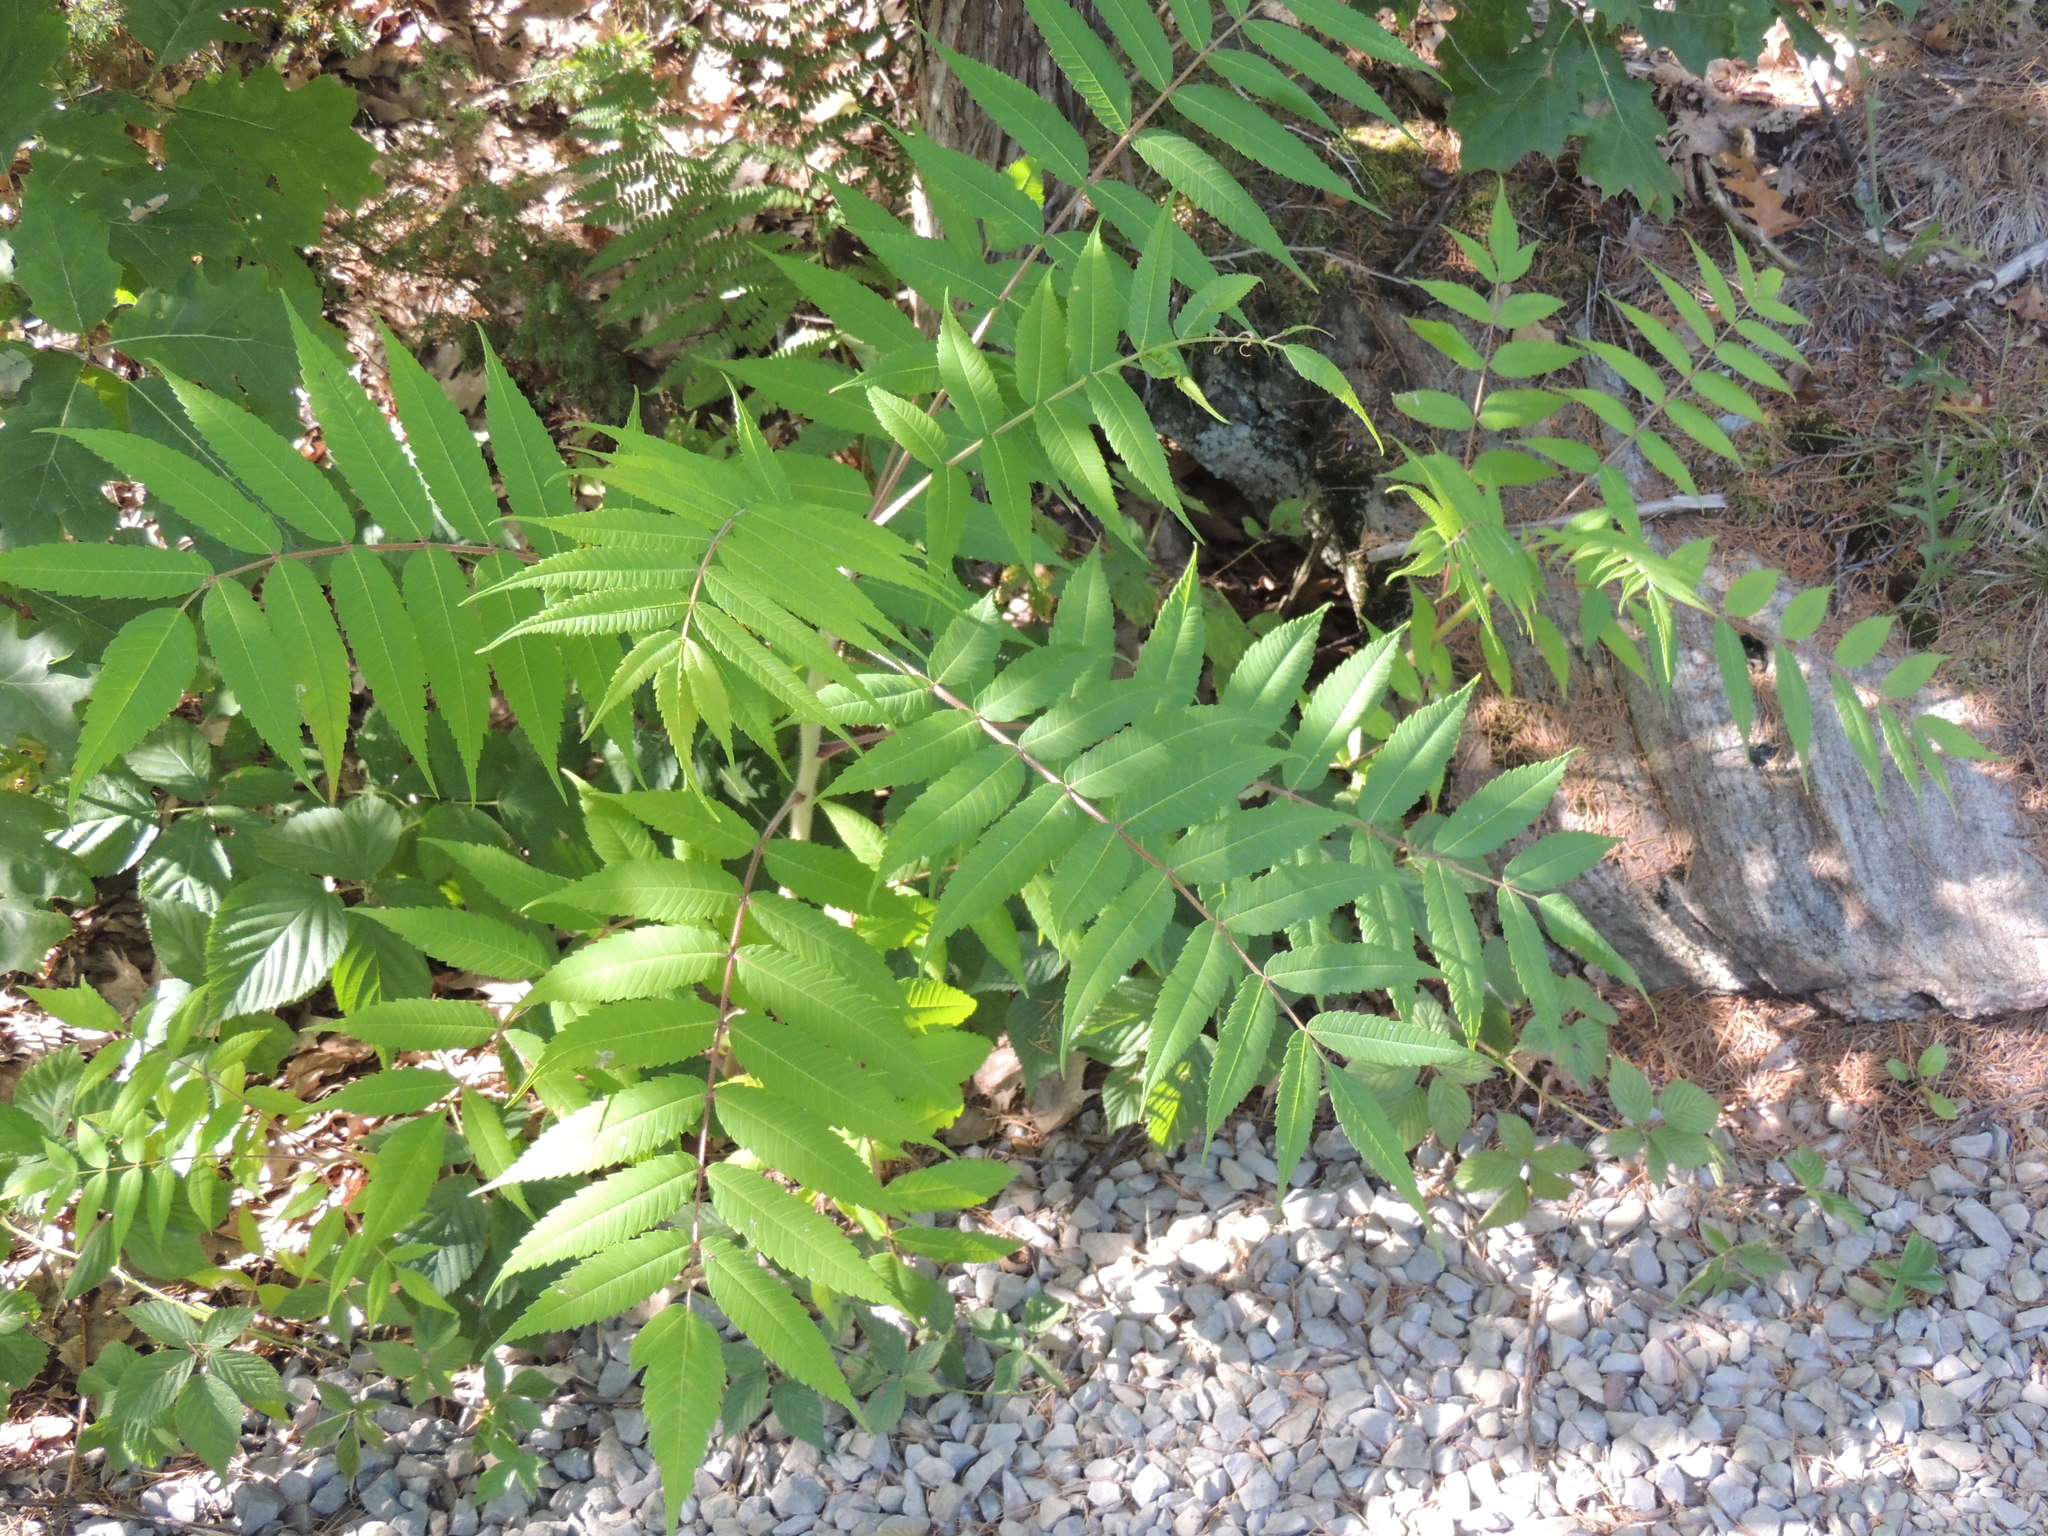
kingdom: Plantae
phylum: Tracheophyta
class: Magnoliopsida
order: Sapindales
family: Anacardiaceae
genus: Rhus
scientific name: Rhus typhina
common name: Staghorn sumac
